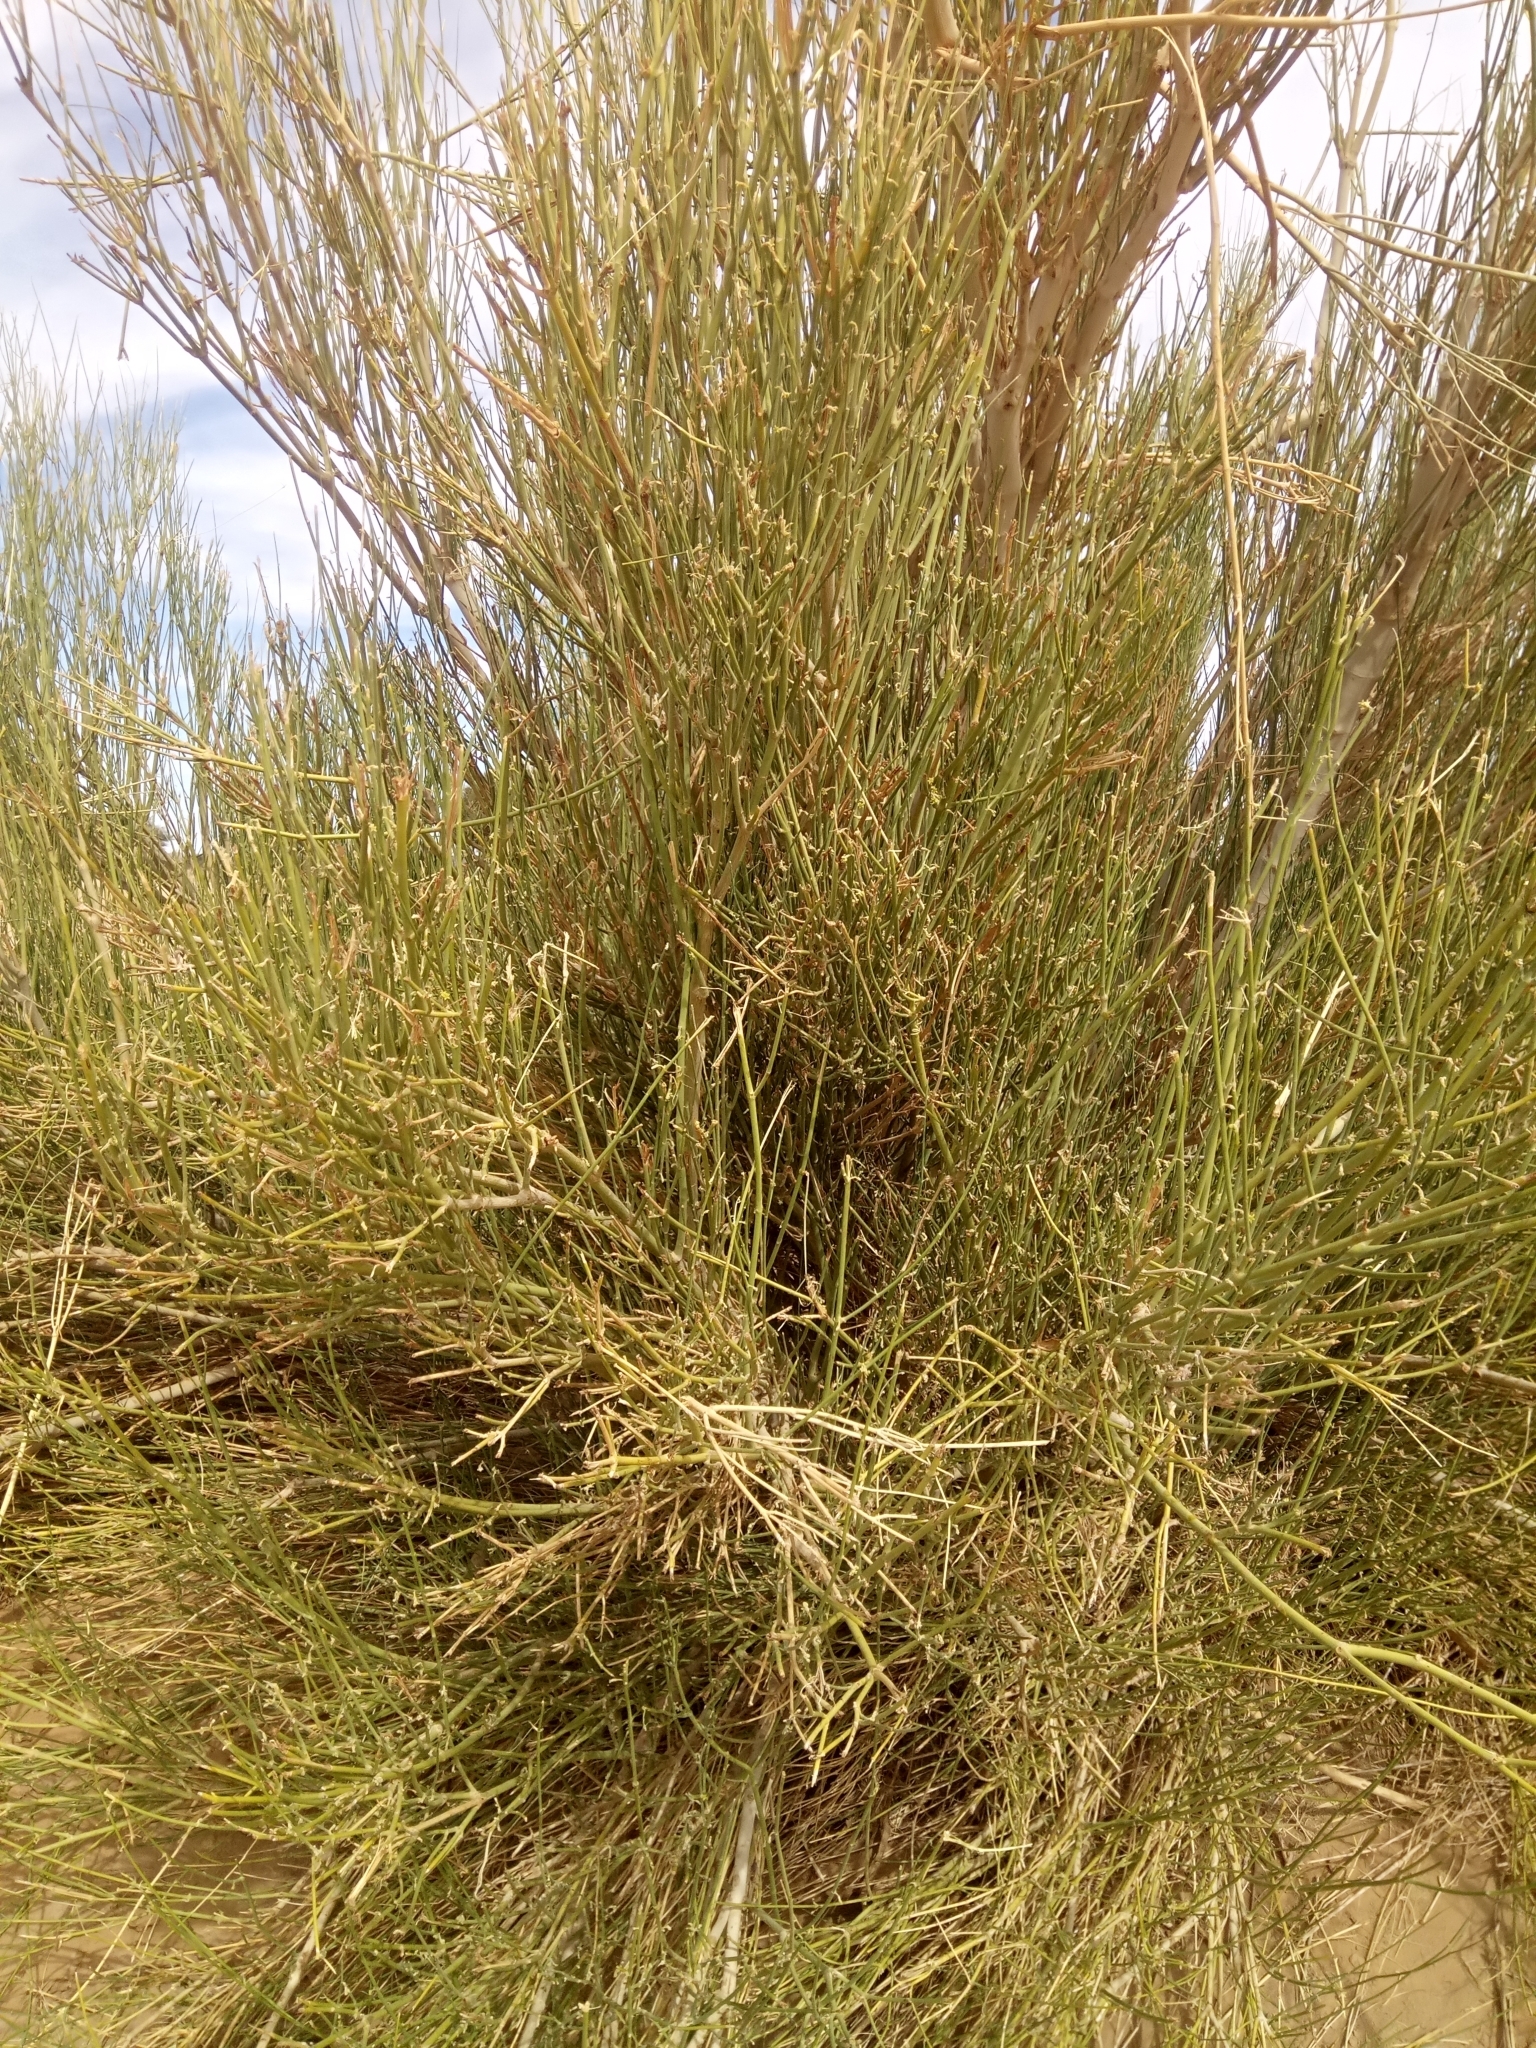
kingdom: Plantae
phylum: Tracheophyta
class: Magnoliopsida
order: Gentianales
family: Apocynaceae
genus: Leptadenia
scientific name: Leptadenia pyrotechnica
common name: Broom brush
